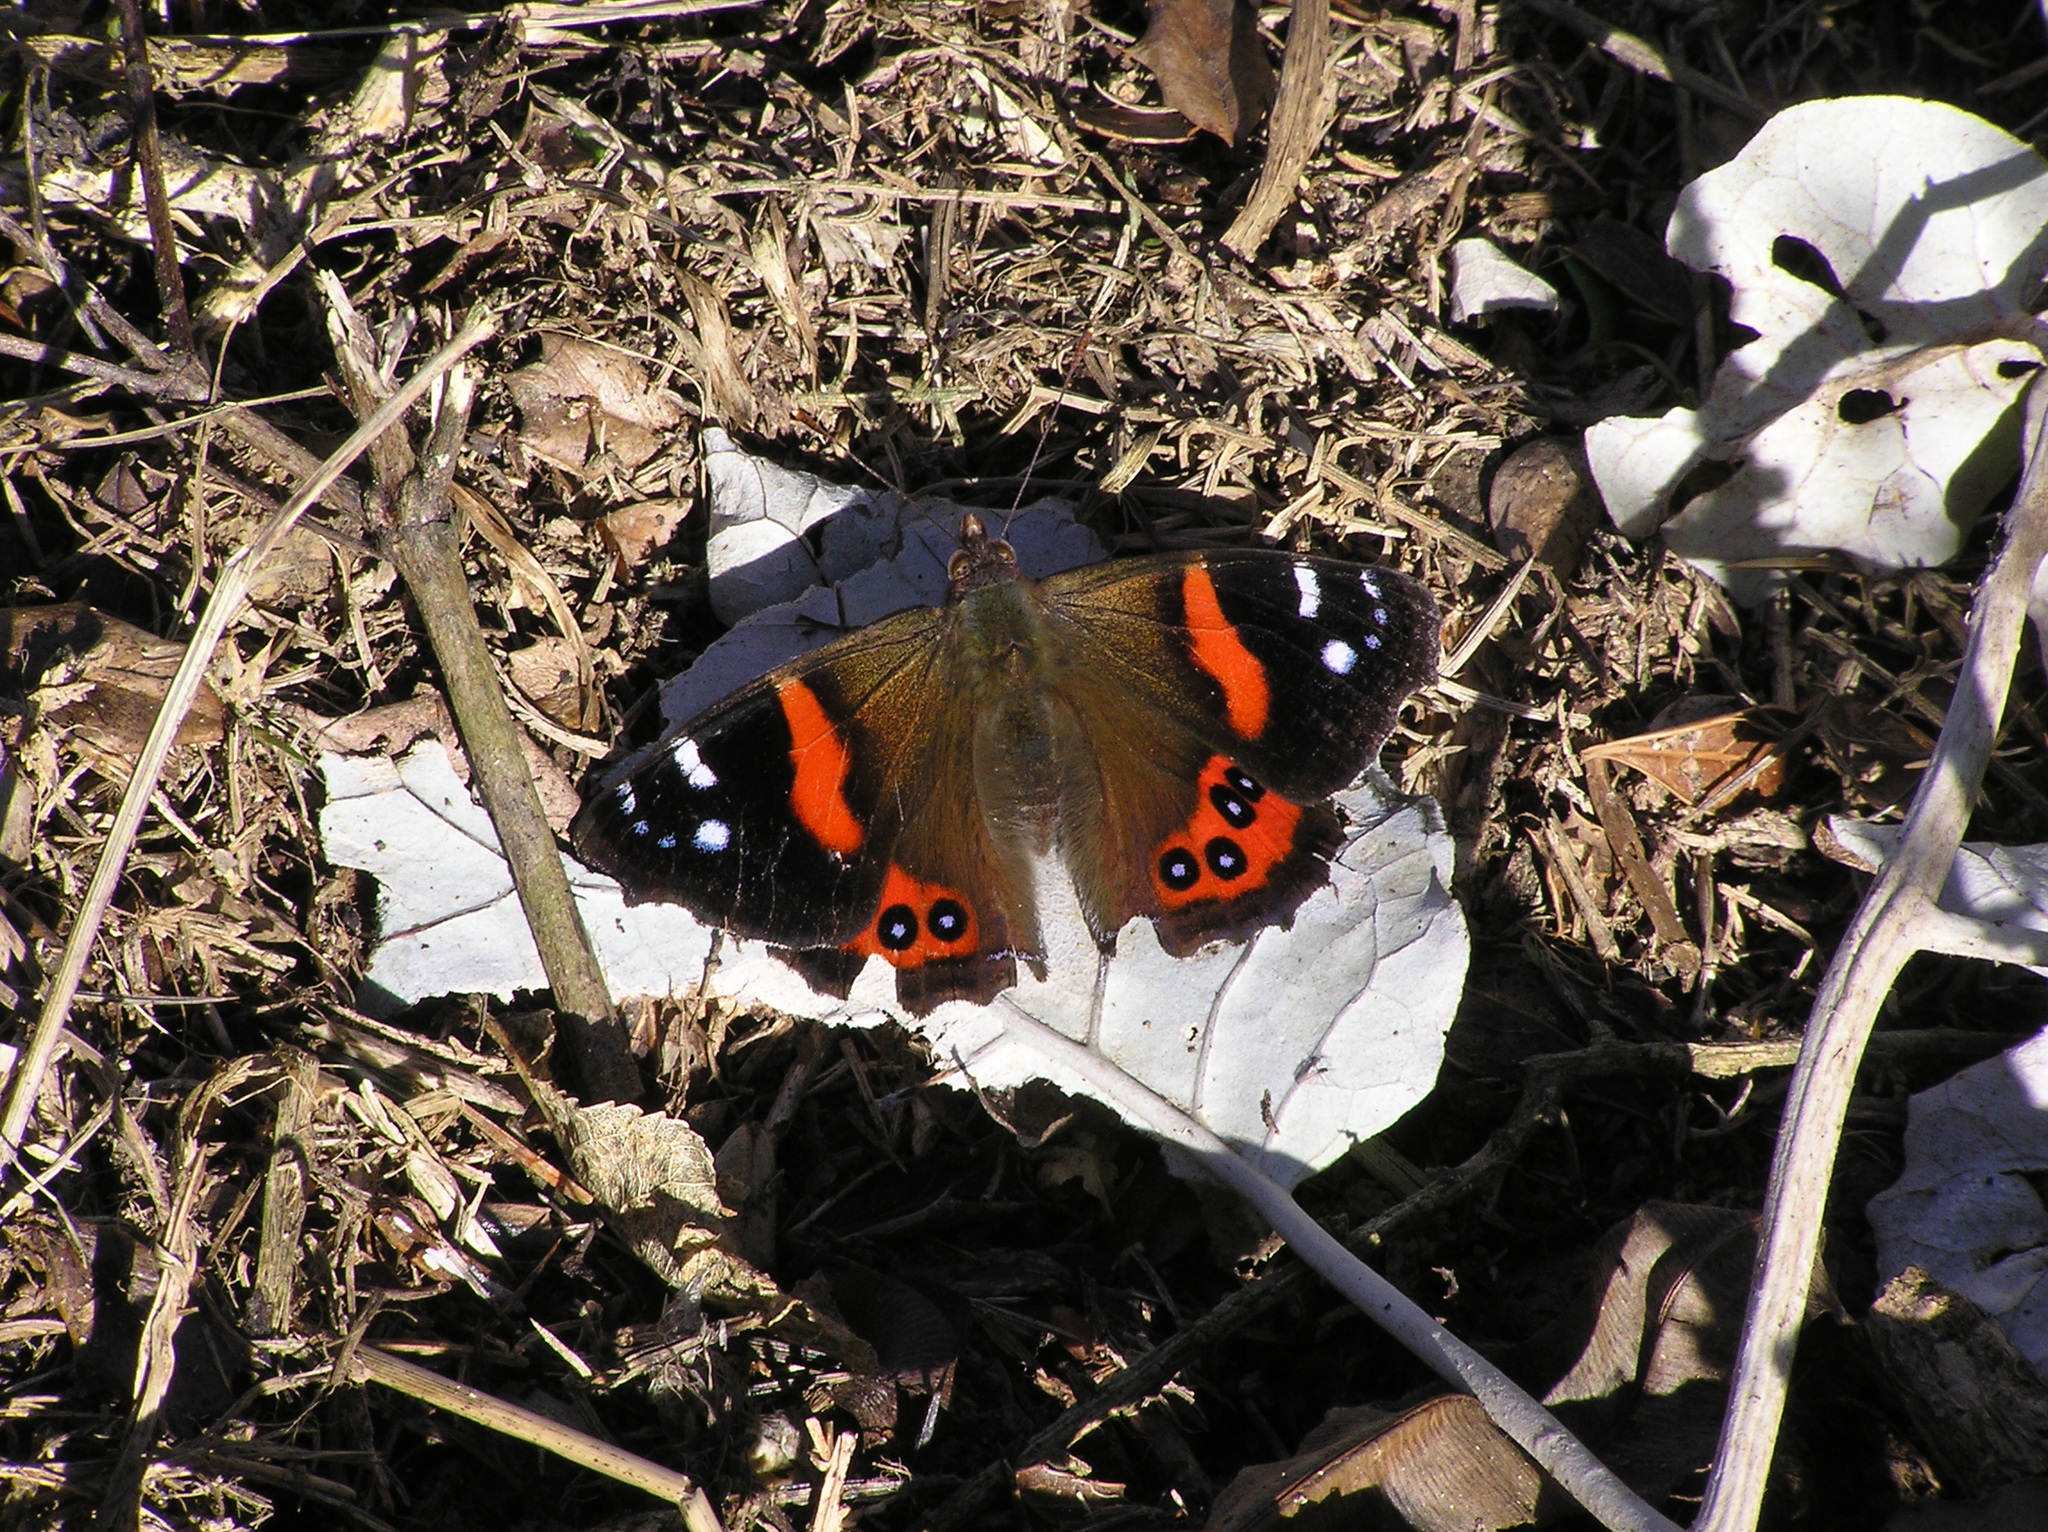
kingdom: Animalia
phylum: Arthropoda
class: Insecta
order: Lepidoptera
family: Nymphalidae
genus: Vanessa
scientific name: Vanessa gonerilla
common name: New zealand red admiral
